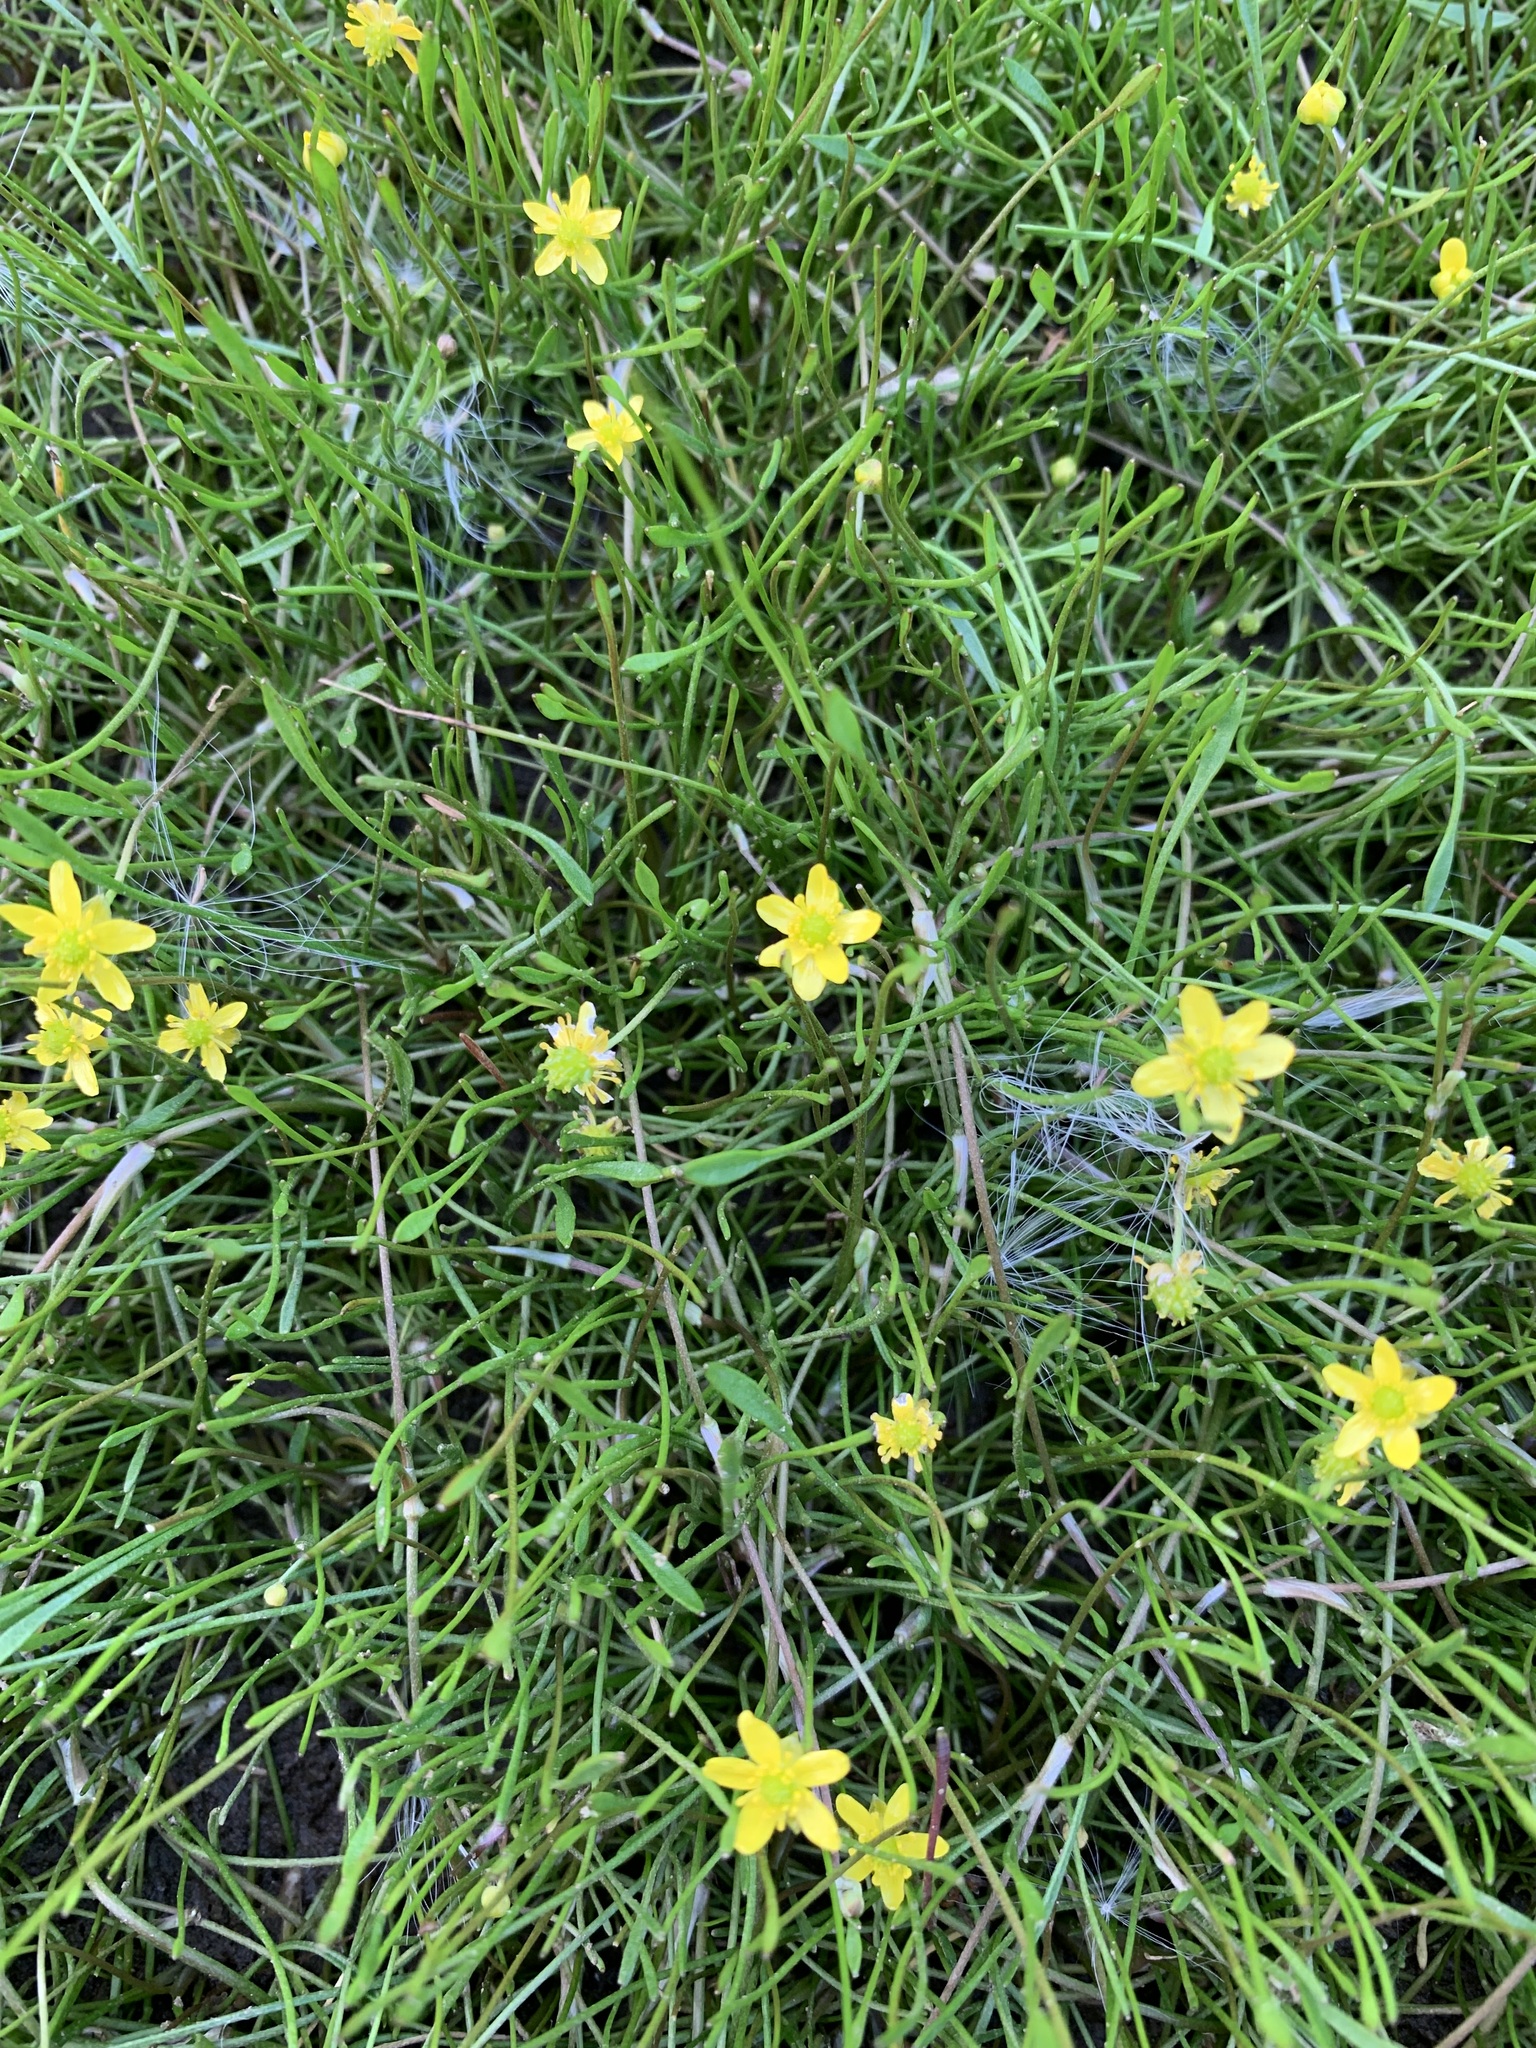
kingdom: Plantae
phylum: Tracheophyta
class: Magnoliopsida
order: Ranunculales
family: Ranunculaceae
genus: Ranunculus
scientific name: Ranunculus reptans
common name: Creeping spearwort
